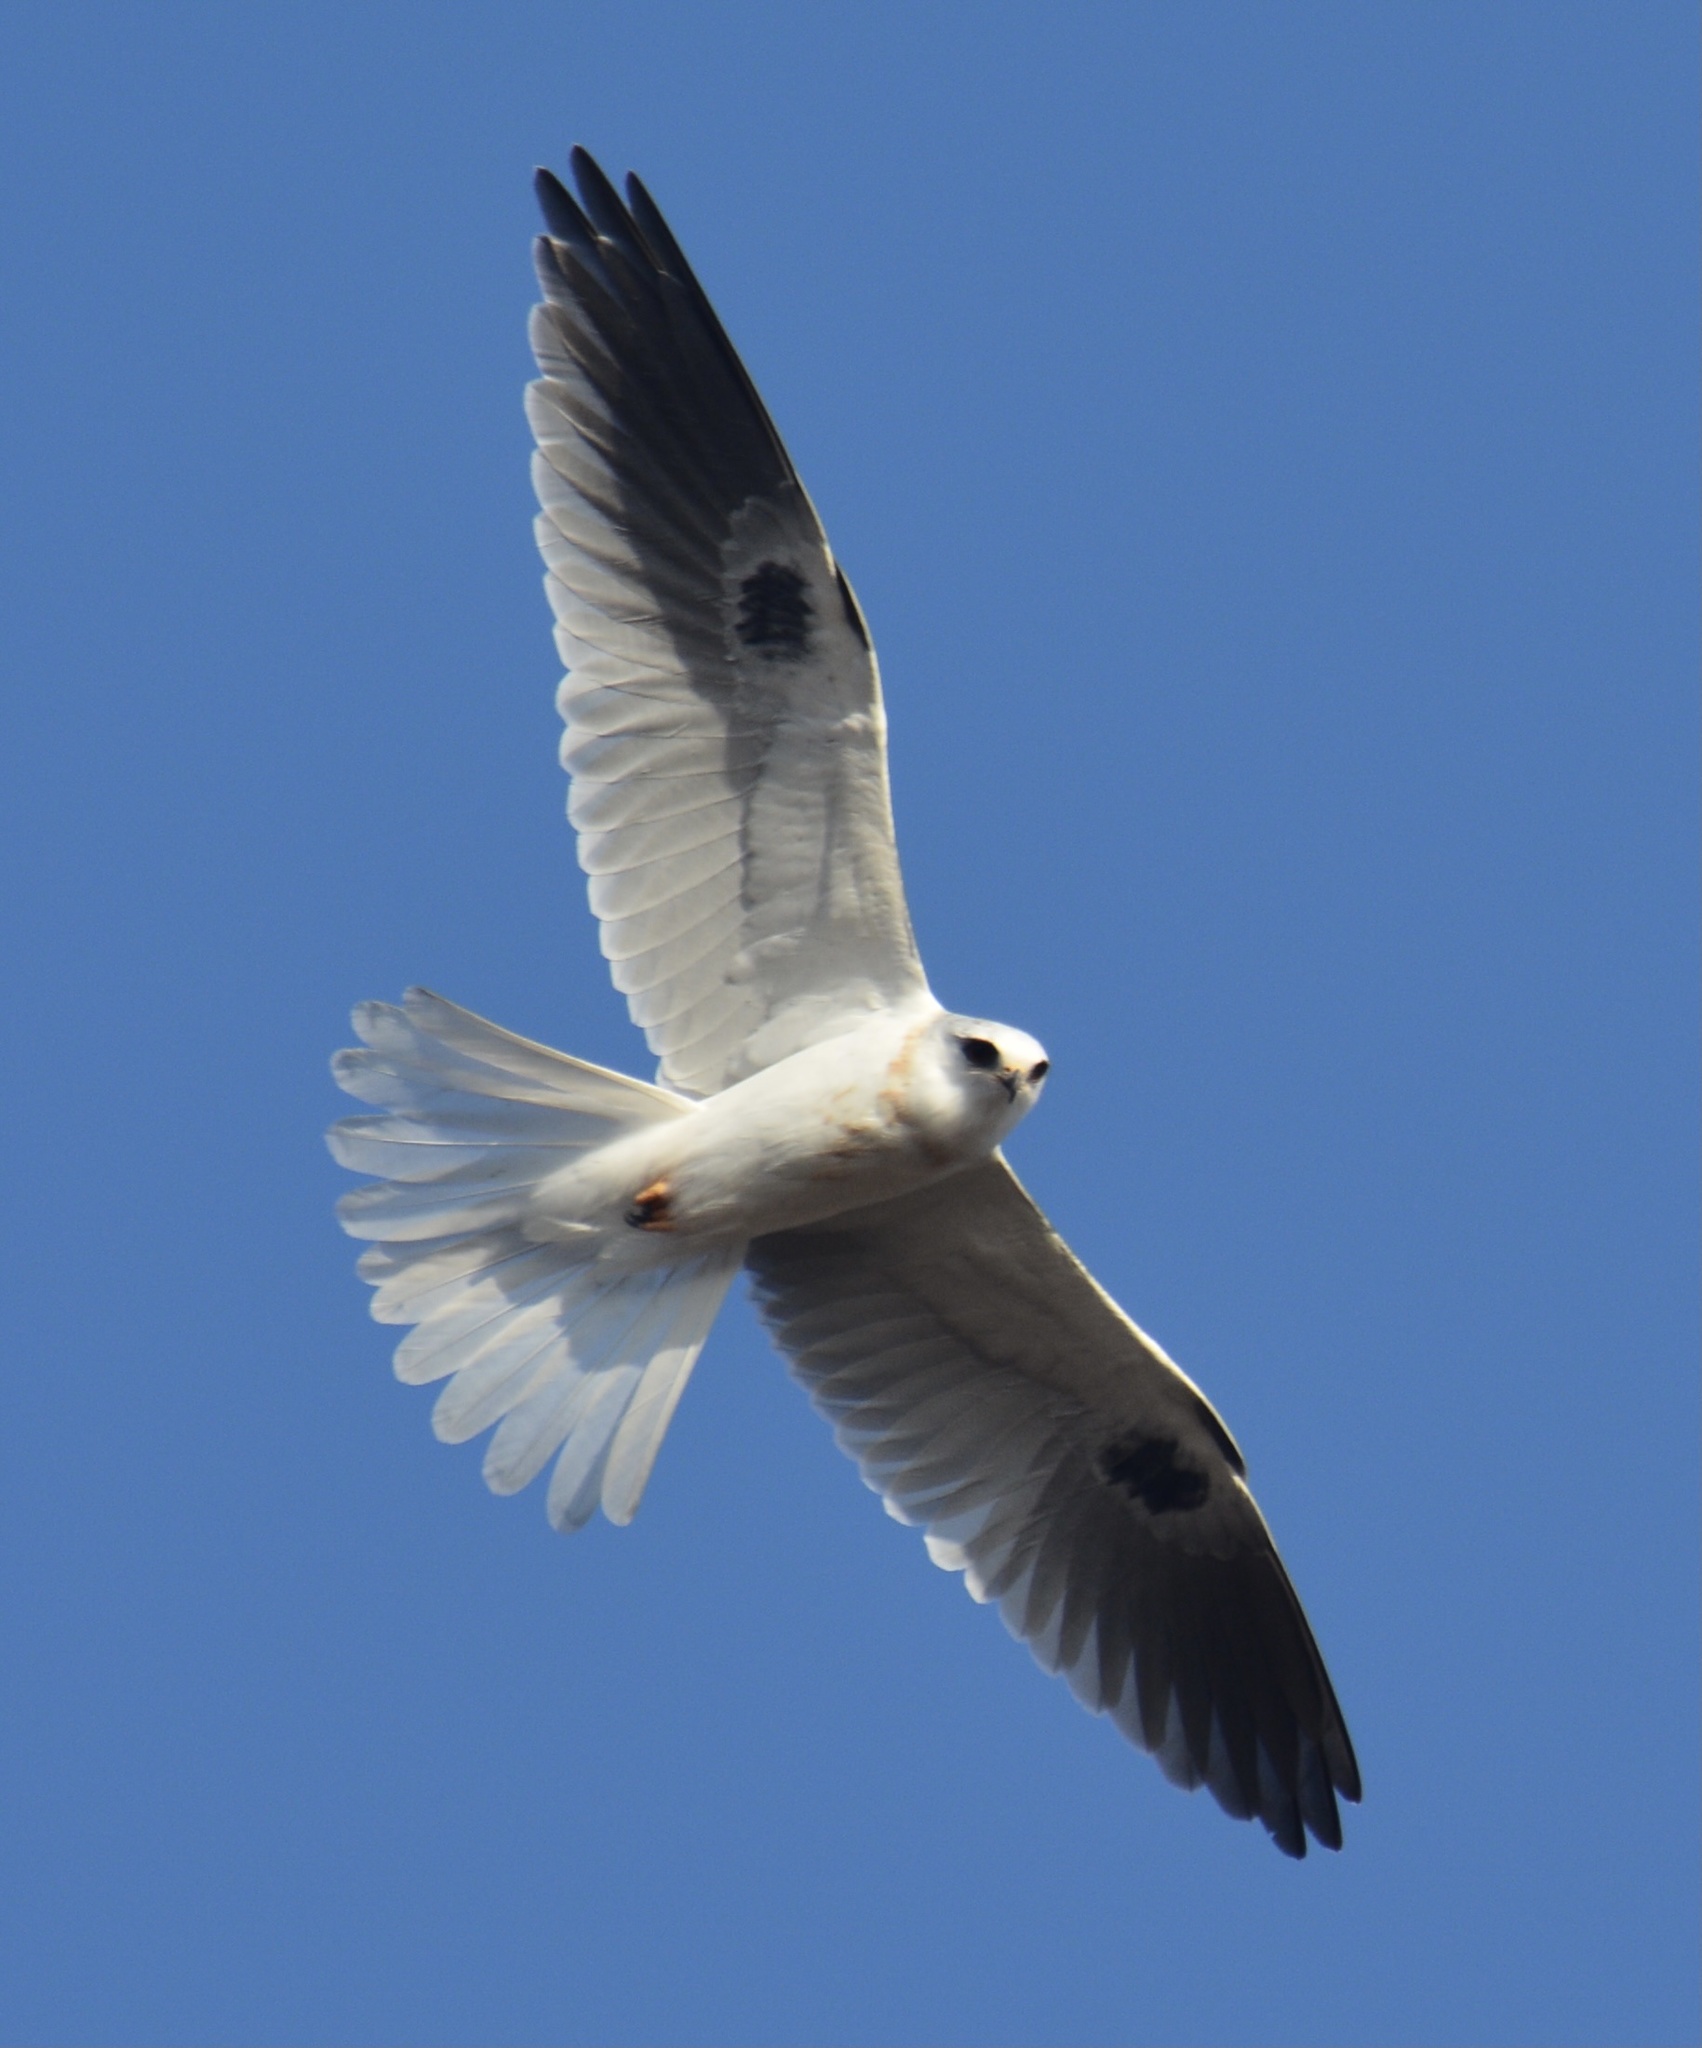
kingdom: Animalia
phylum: Chordata
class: Aves
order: Accipitriformes
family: Accipitridae
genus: Elanus
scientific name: Elanus leucurus
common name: White-tailed kite
